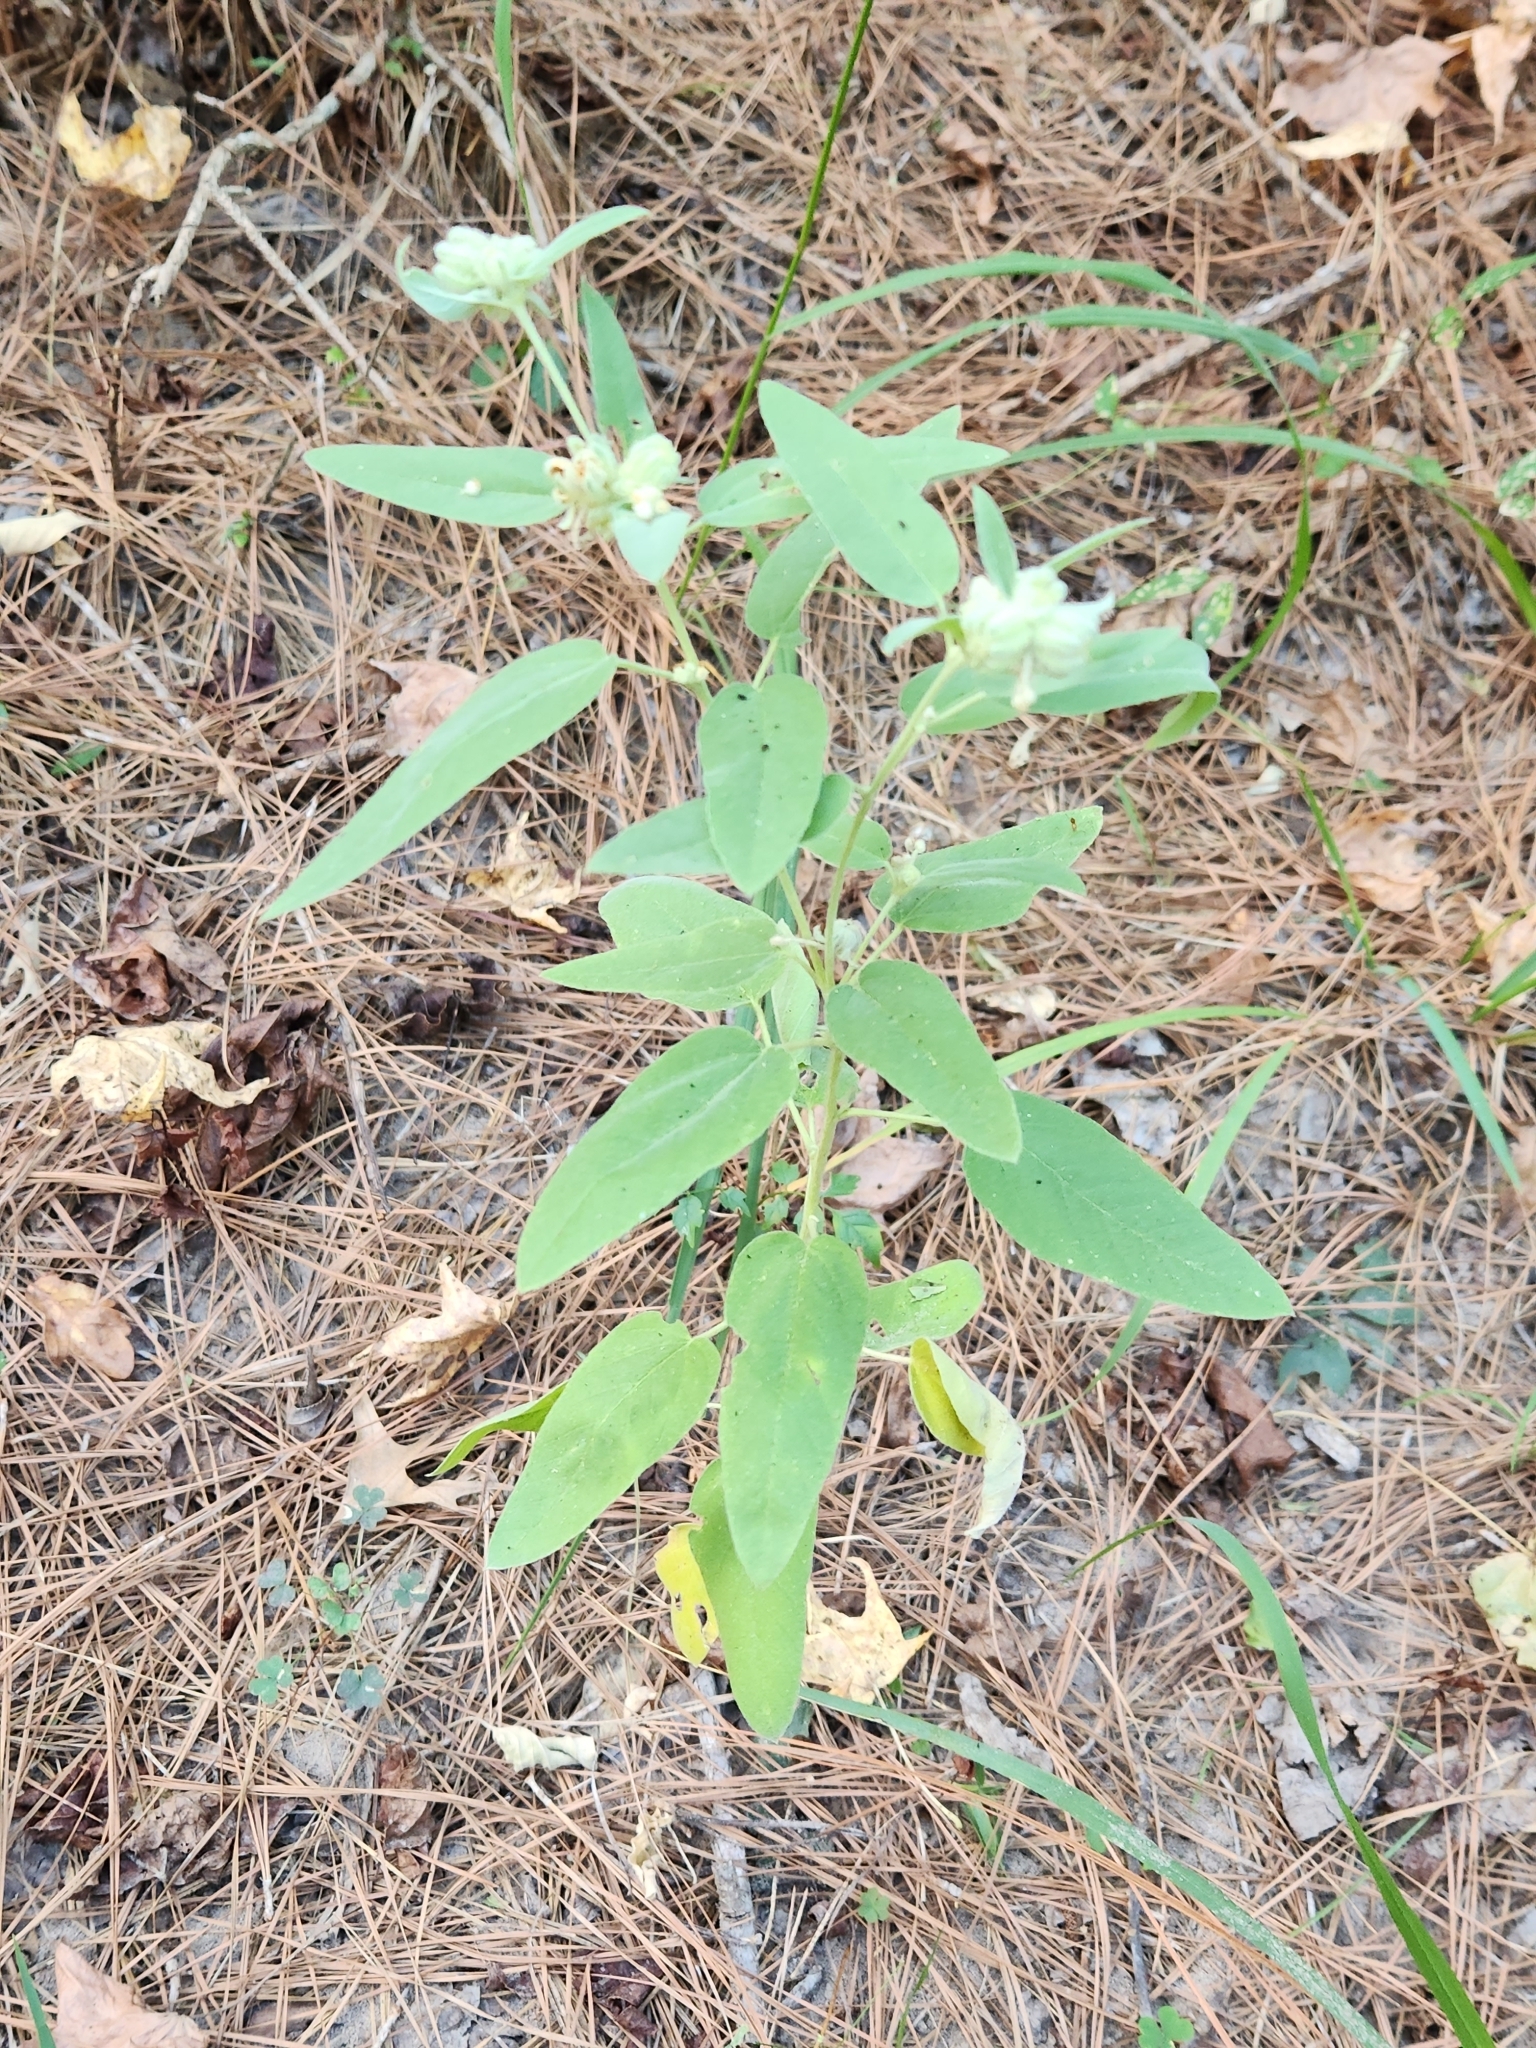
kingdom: Plantae
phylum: Tracheophyta
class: Magnoliopsida
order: Malpighiales
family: Euphorbiaceae
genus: Croton
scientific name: Croton lindheimeri
